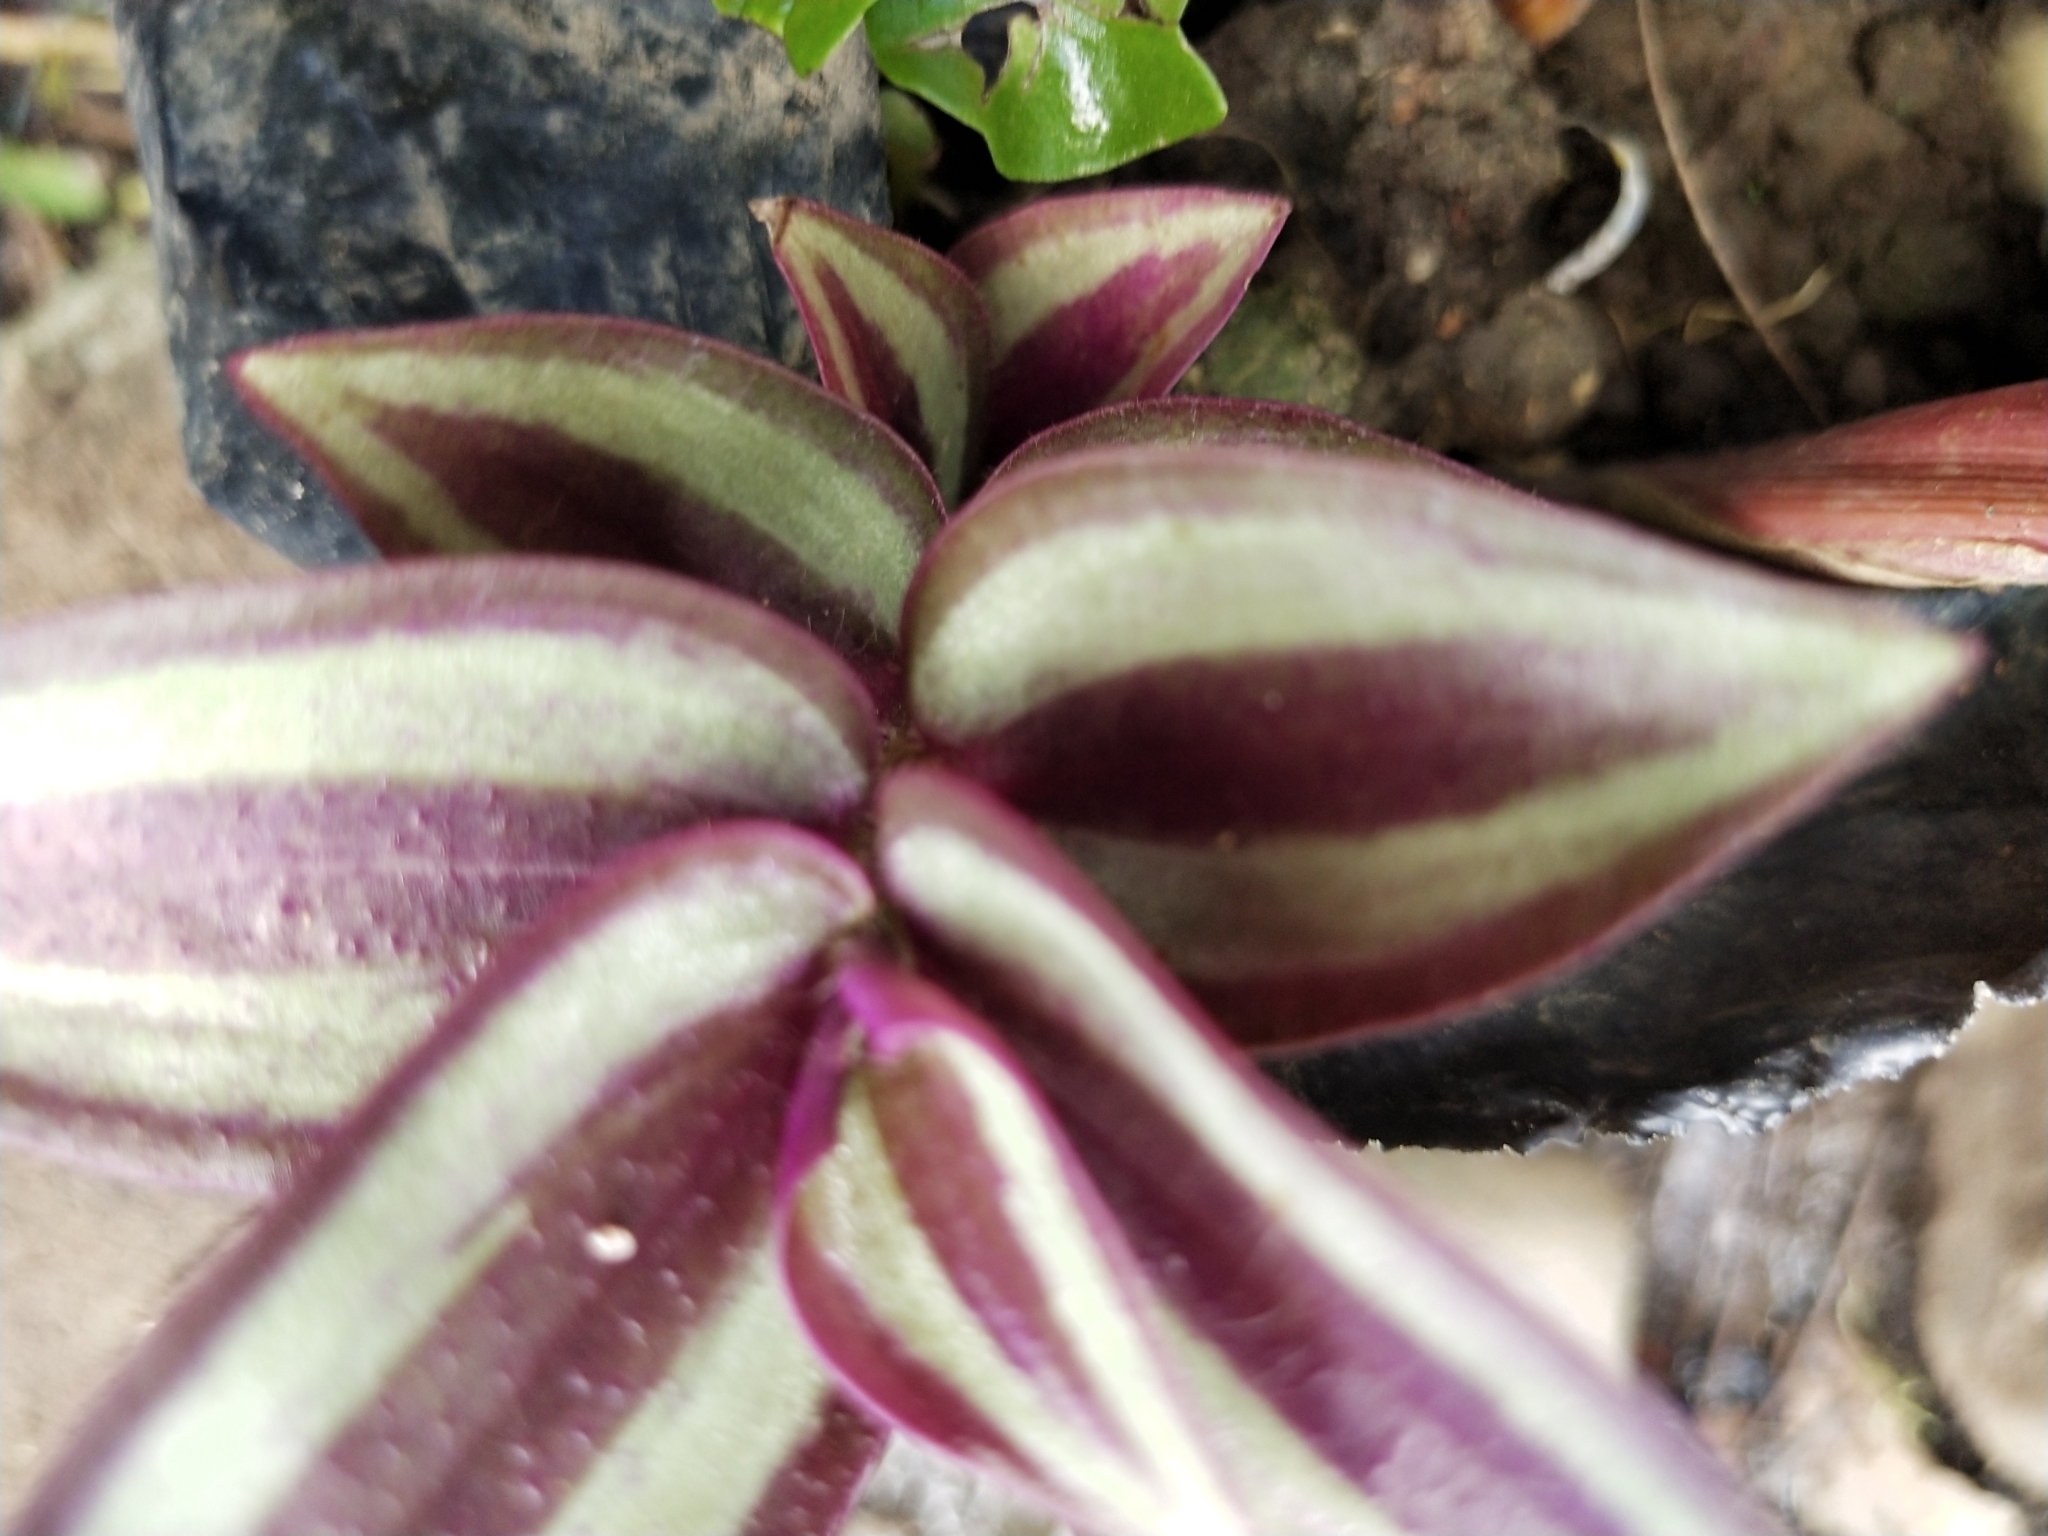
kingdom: Plantae
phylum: Tracheophyta
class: Liliopsida
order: Commelinales
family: Commelinaceae
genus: Tradescantia
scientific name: Tradescantia zebrina
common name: Inchplant
